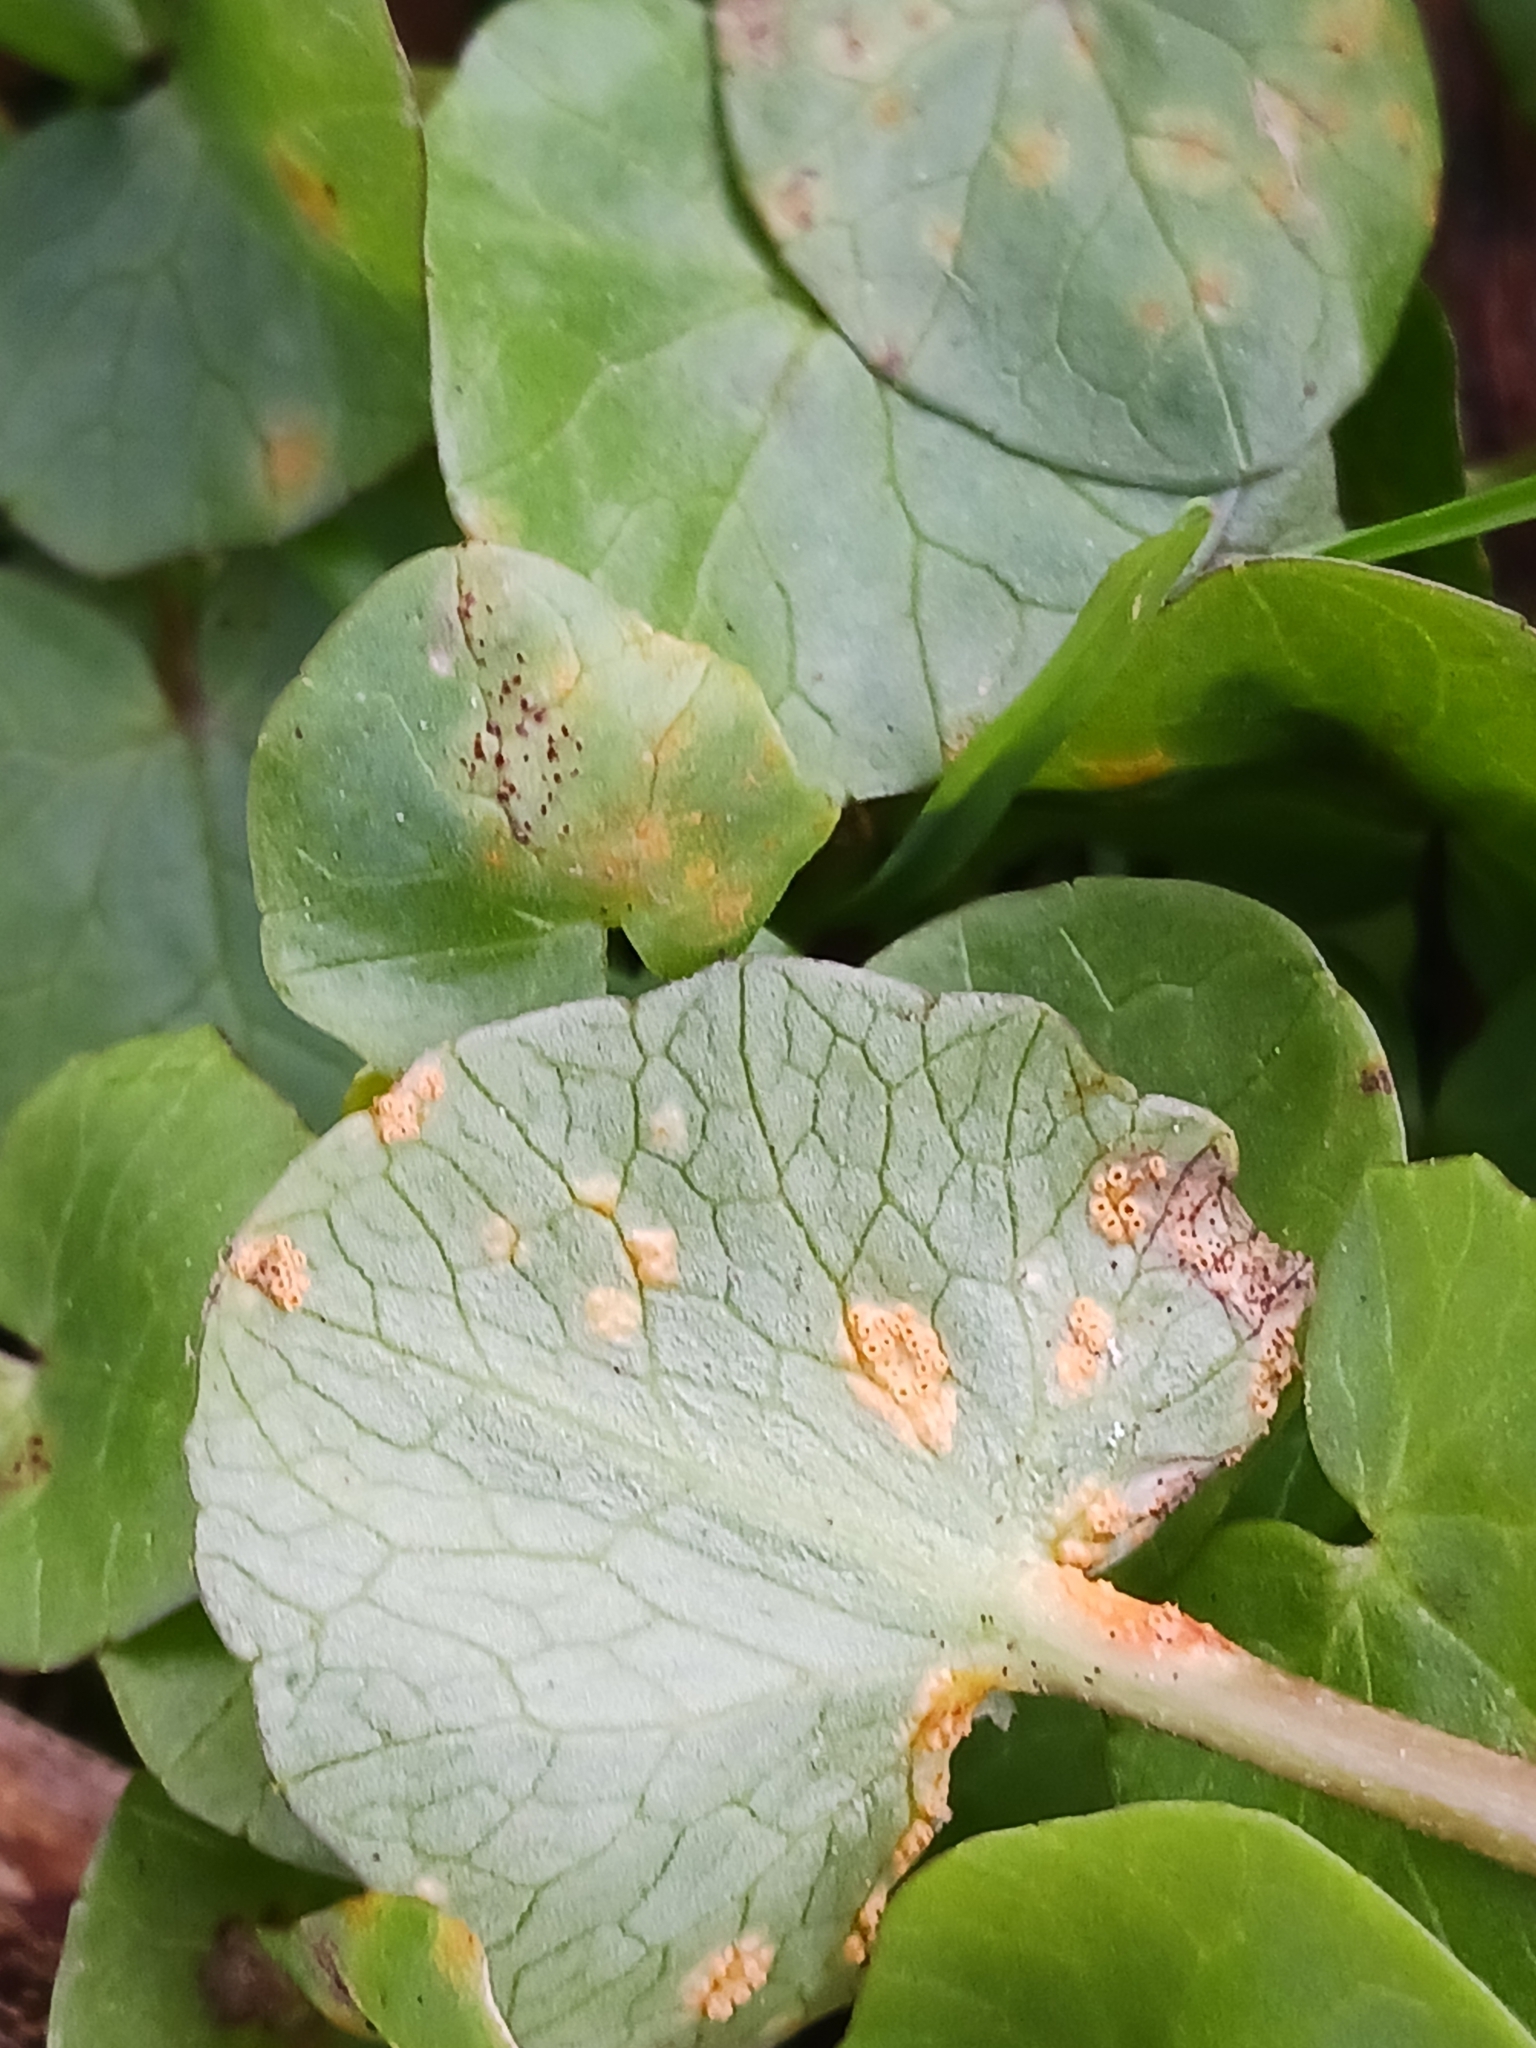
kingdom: Fungi
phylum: Basidiomycota
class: Pucciniomycetes
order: Pucciniales
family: Pucciniaceae
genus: Uromyces
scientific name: Uromyces
